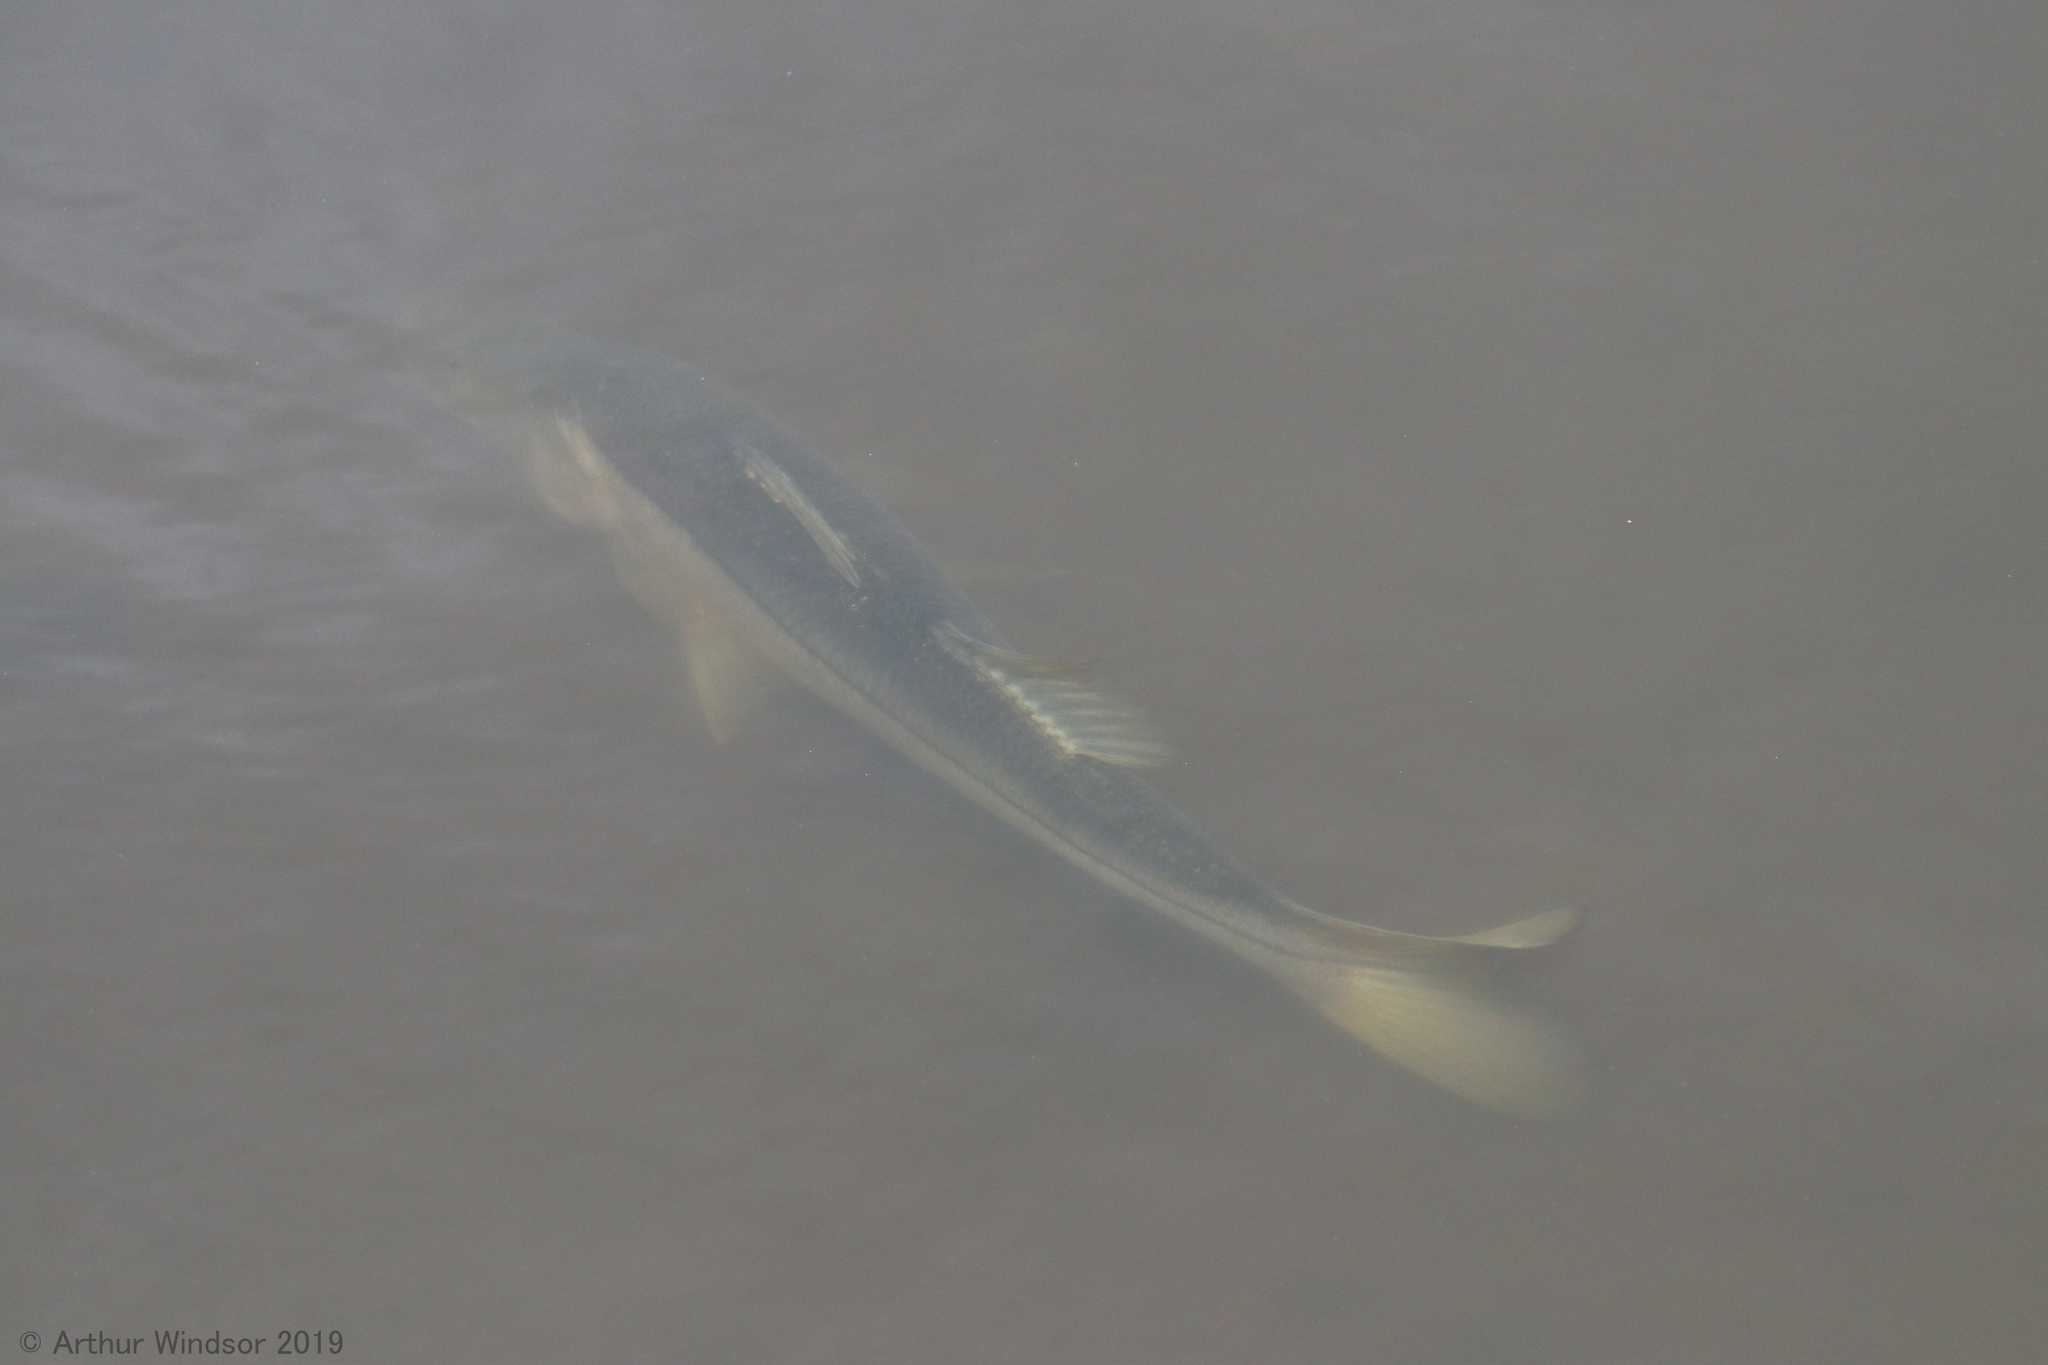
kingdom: Animalia
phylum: Chordata
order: Perciformes
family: Centropomidae
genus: Centropomus
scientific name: Centropomus undecimalis
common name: Snook
